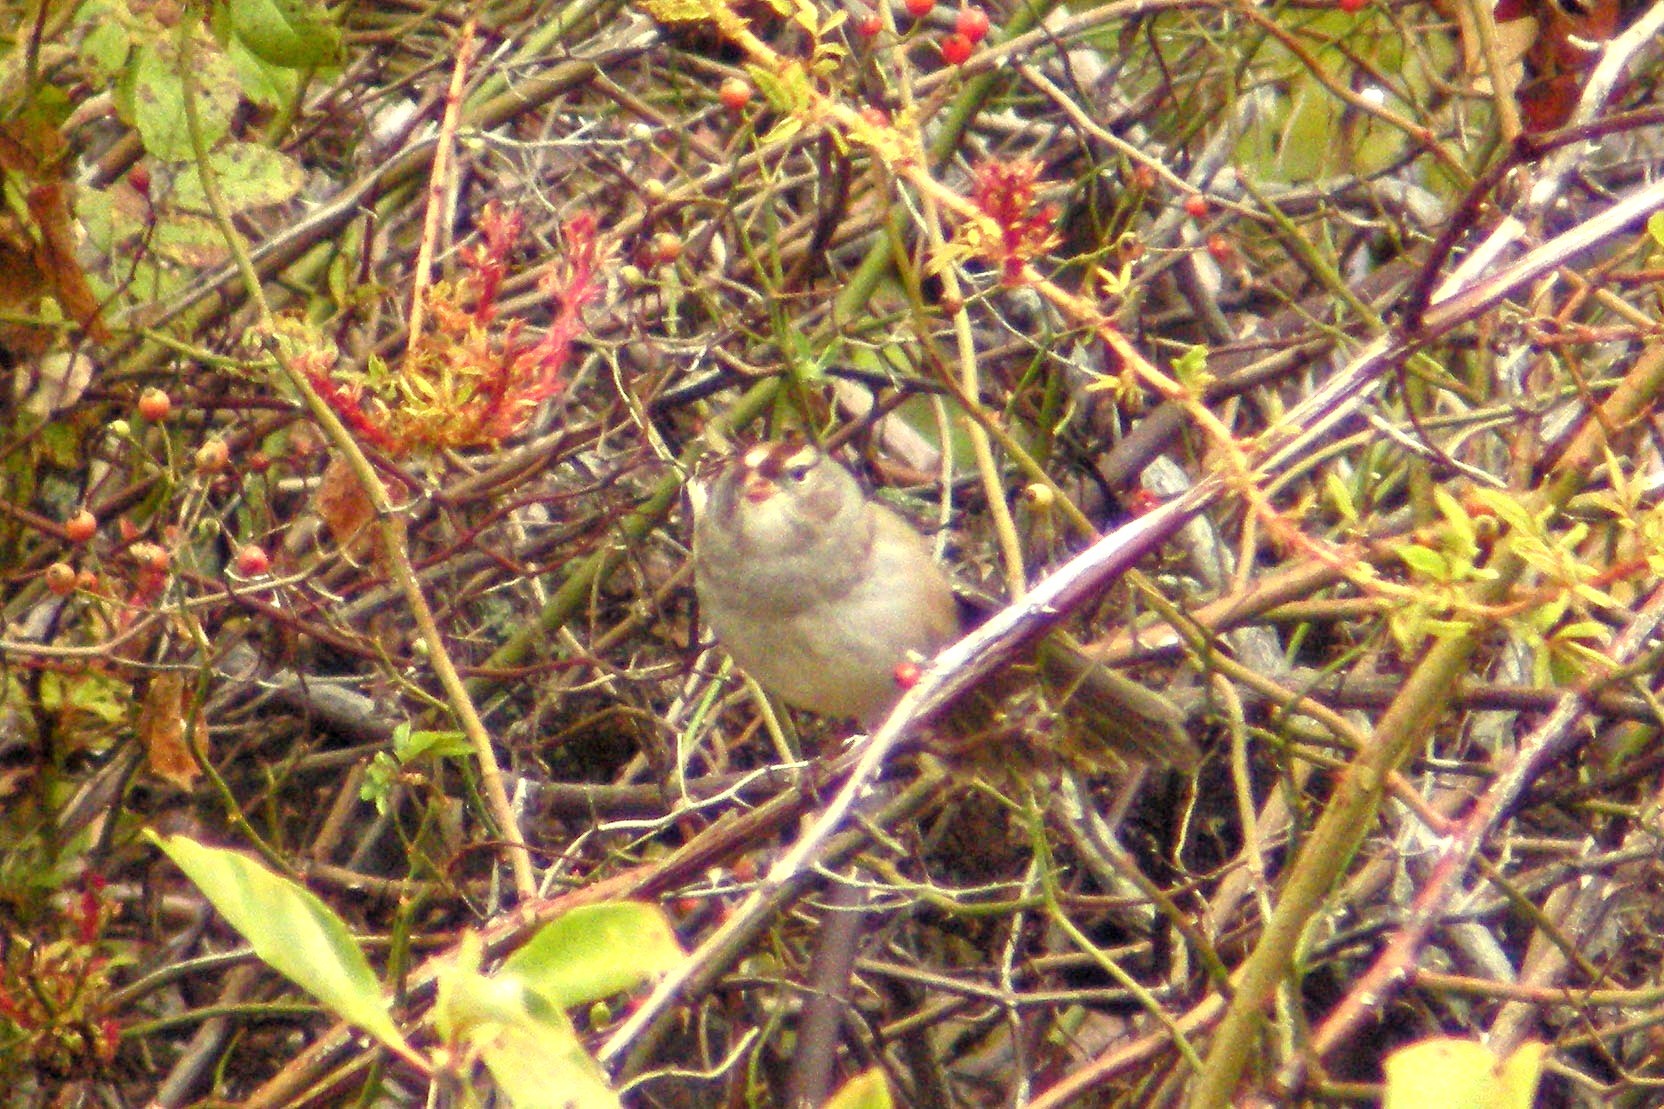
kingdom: Animalia
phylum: Chordata
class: Aves
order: Passeriformes
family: Passerellidae
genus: Zonotrichia
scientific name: Zonotrichia leucophrys
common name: White-crowned sparrow
